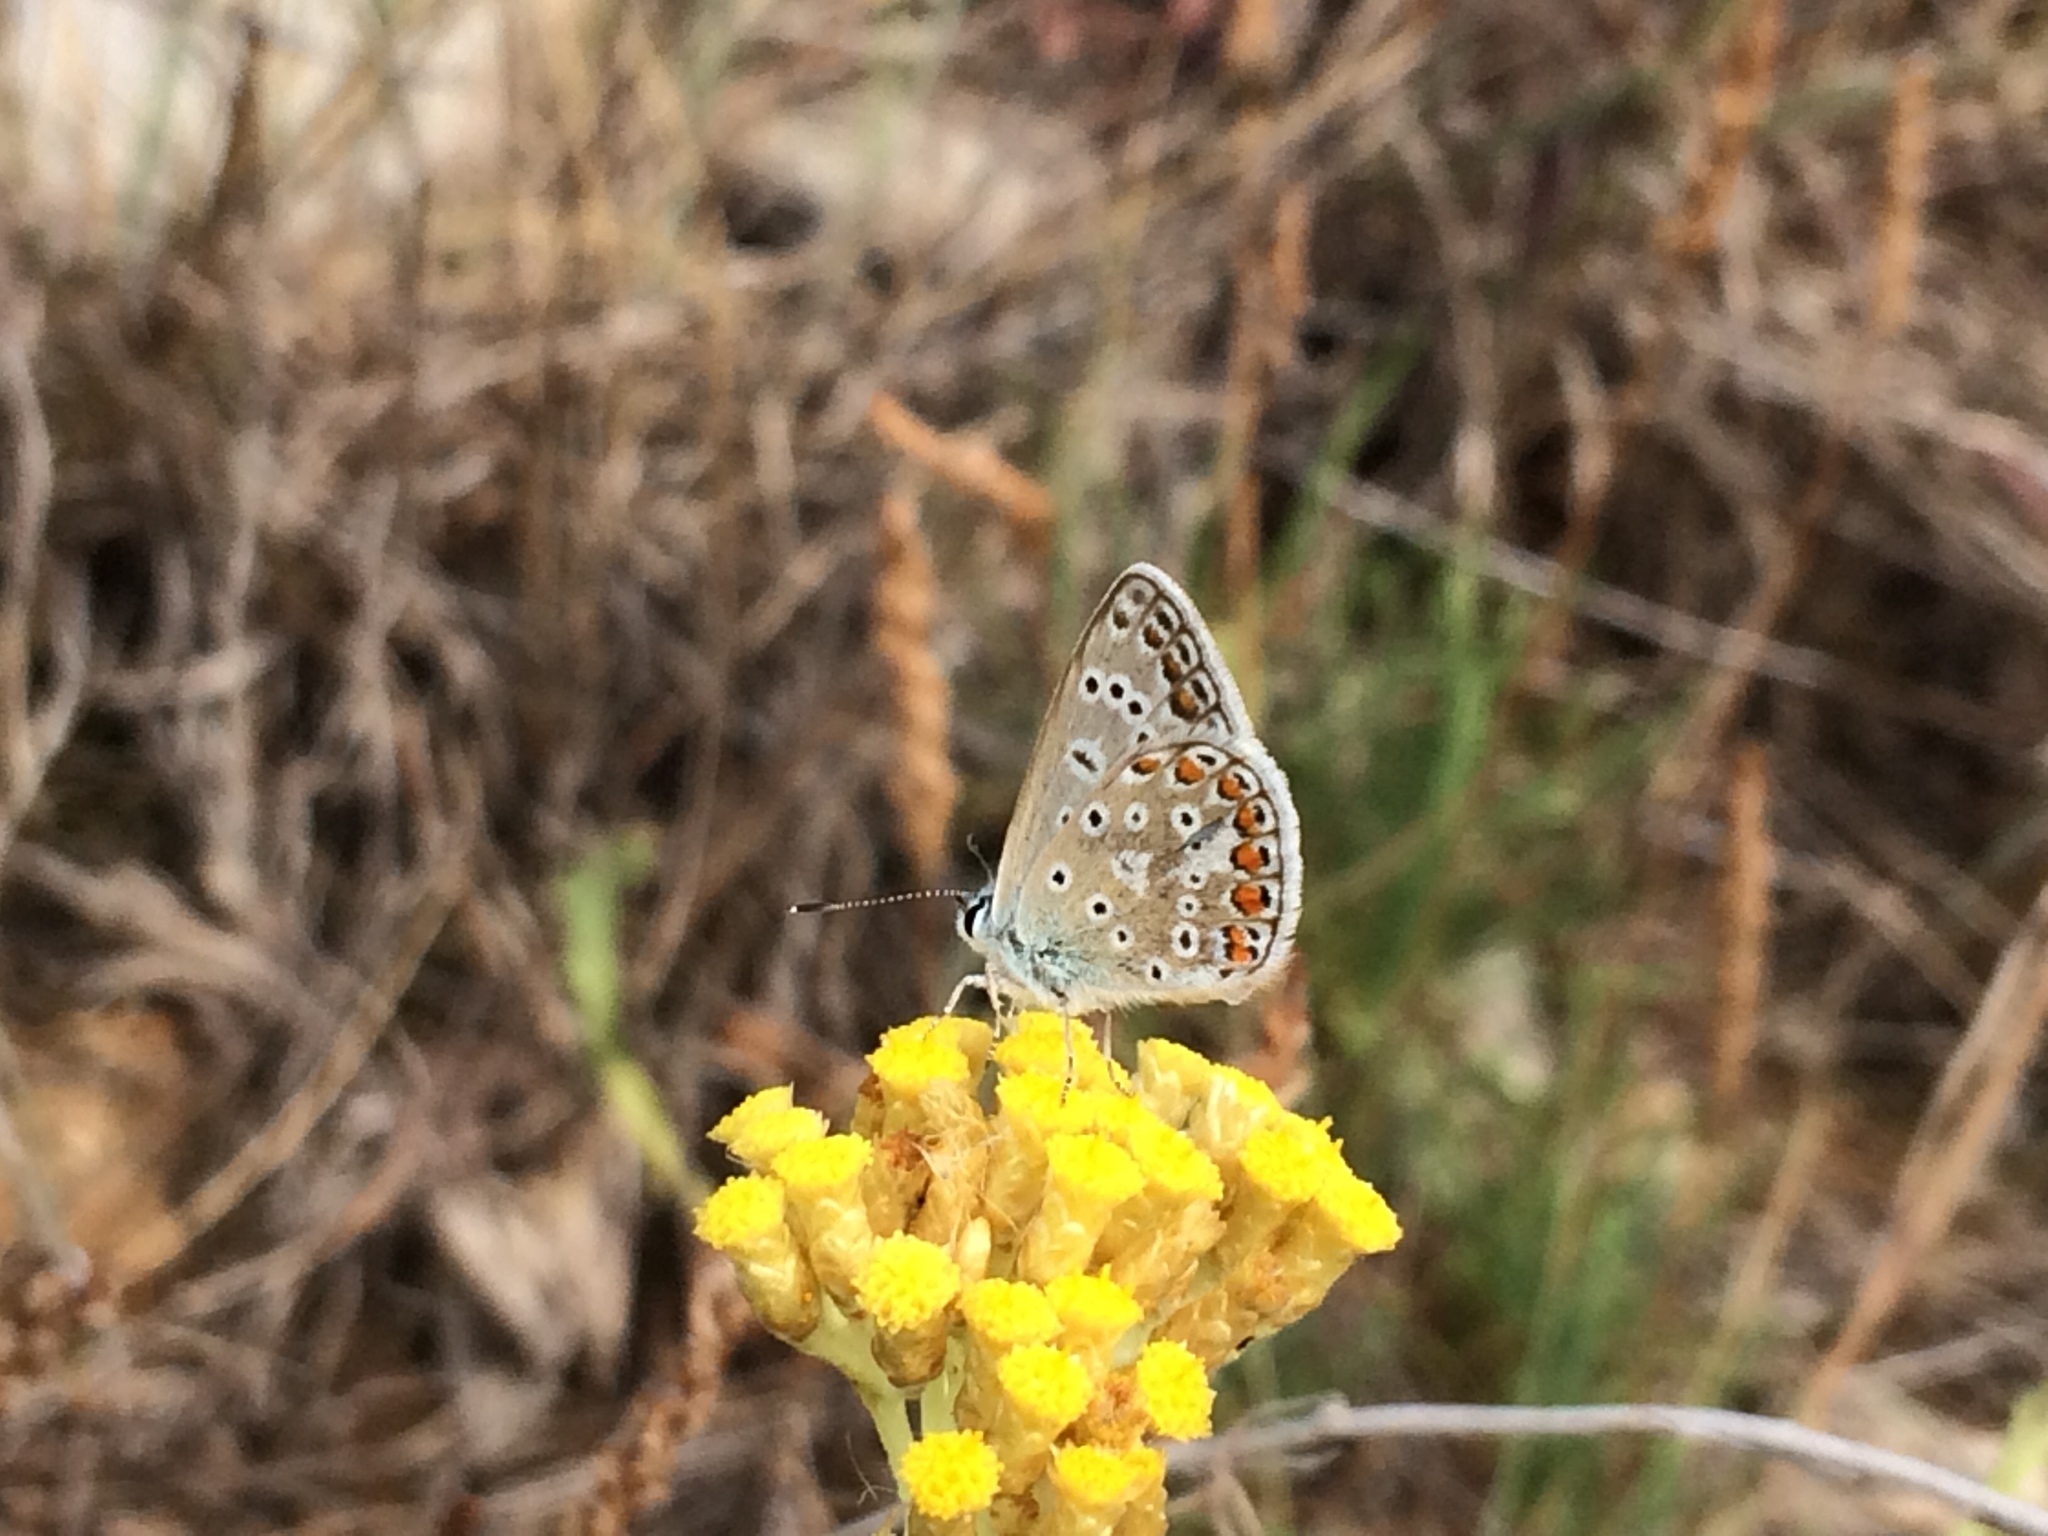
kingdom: Animalia
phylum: Arthropoda
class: Insecta
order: Lepidoptera
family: Lycaenidae
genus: Polyommatus
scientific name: Polyommatus icarus
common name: Common blue
